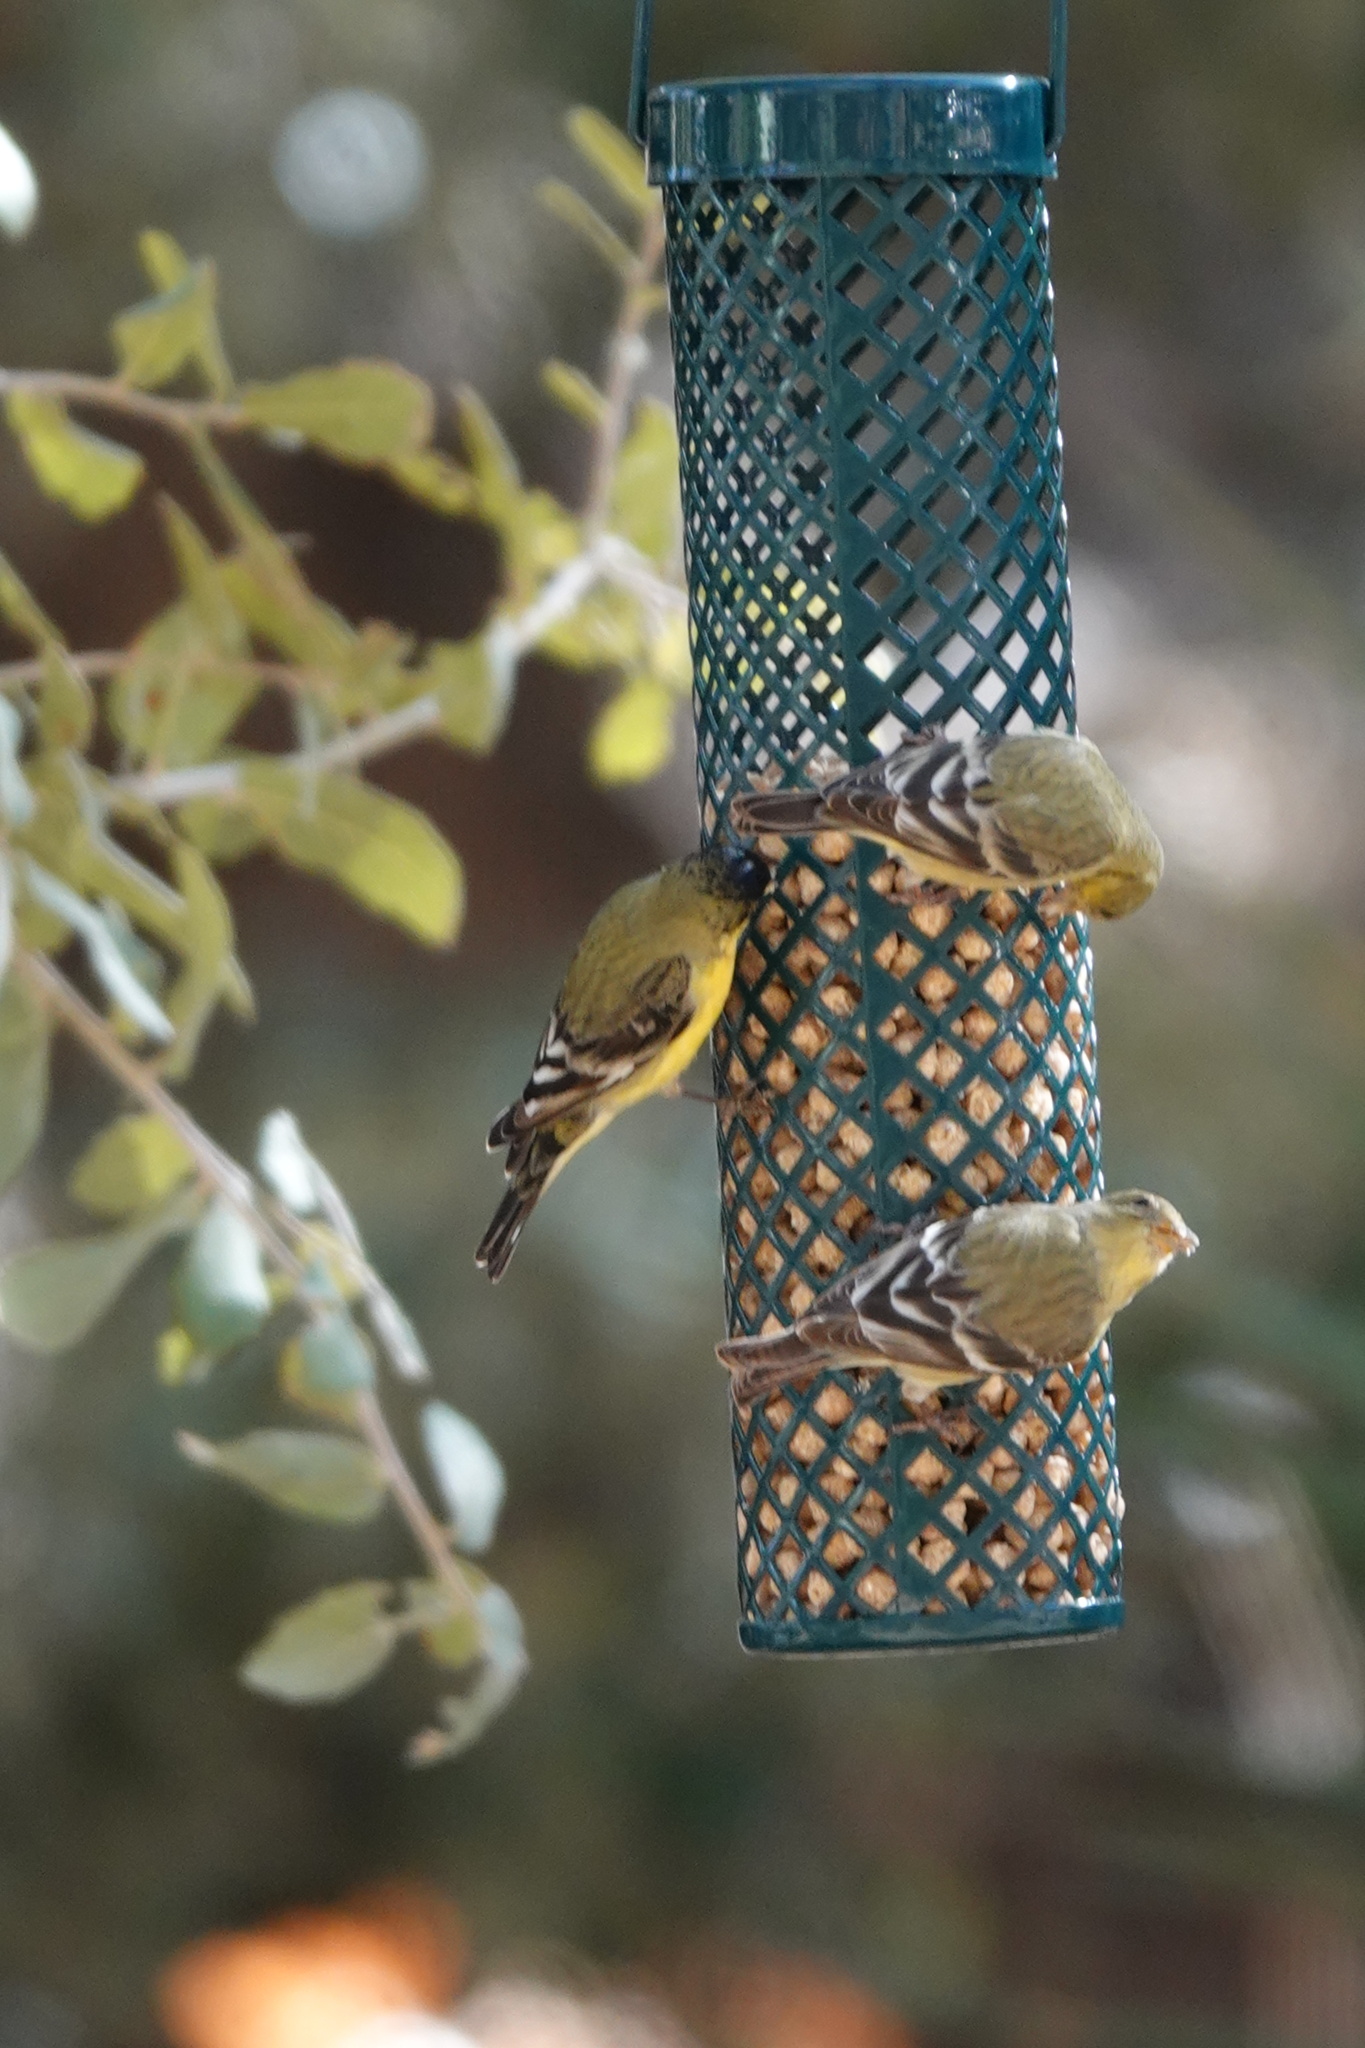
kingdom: Animalia
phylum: Chordata
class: Aves
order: Passeriformes
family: Fringillidae
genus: Spinus
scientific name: Spinus psaltria
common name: Lesser goldfinch
